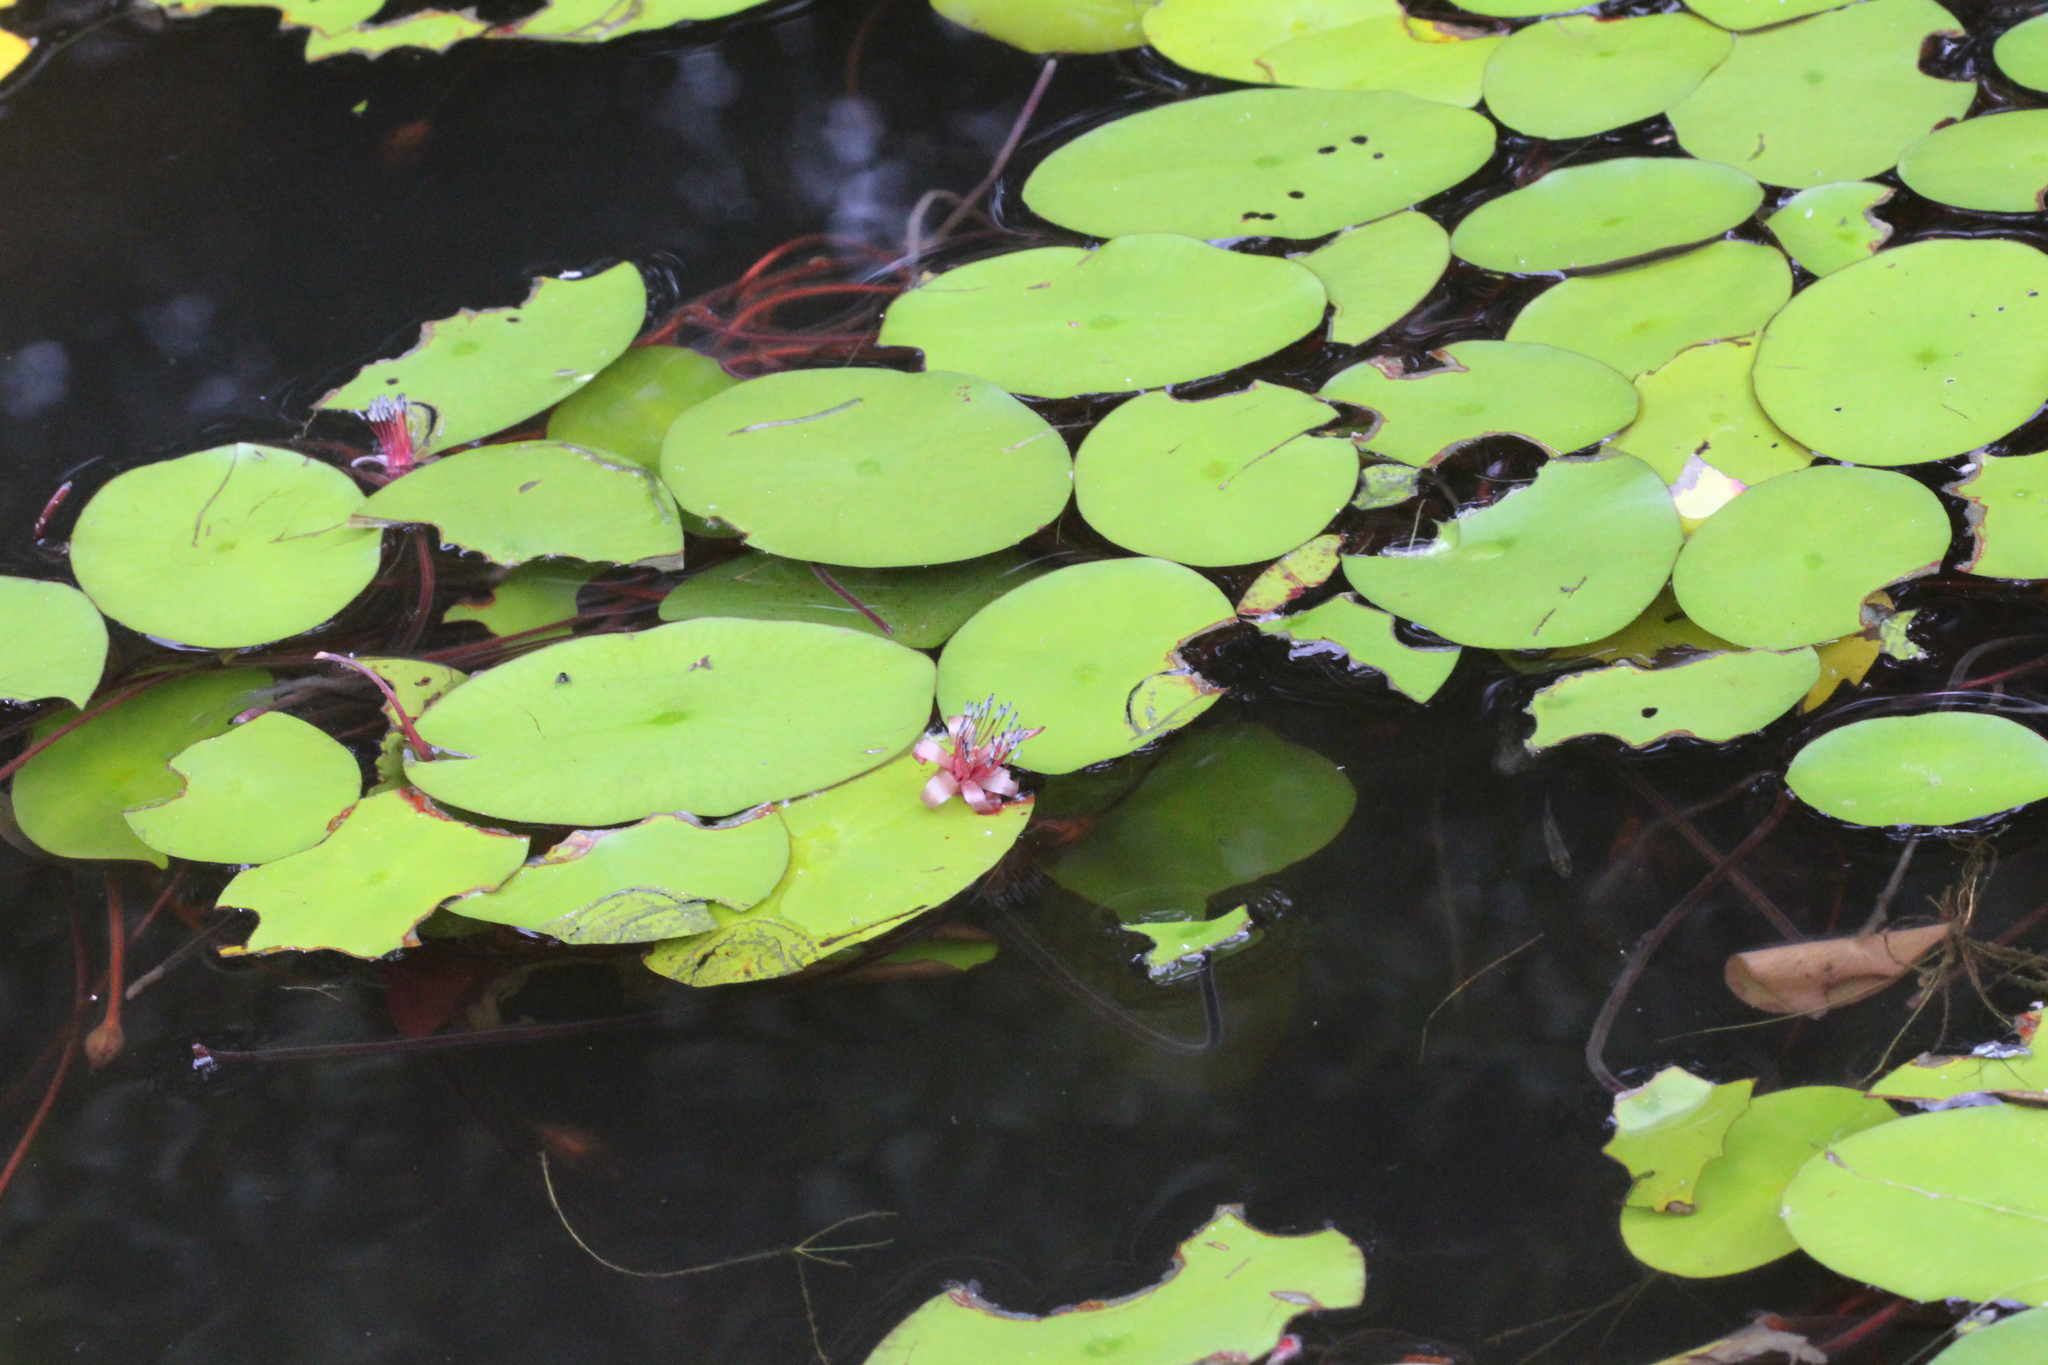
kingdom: Plantae
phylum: Tracheophyta
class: Magnoliopsida
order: Nymphaeales
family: Cabombaceae
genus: Brasenia
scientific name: Brasenia schreberi
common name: Water-shield
